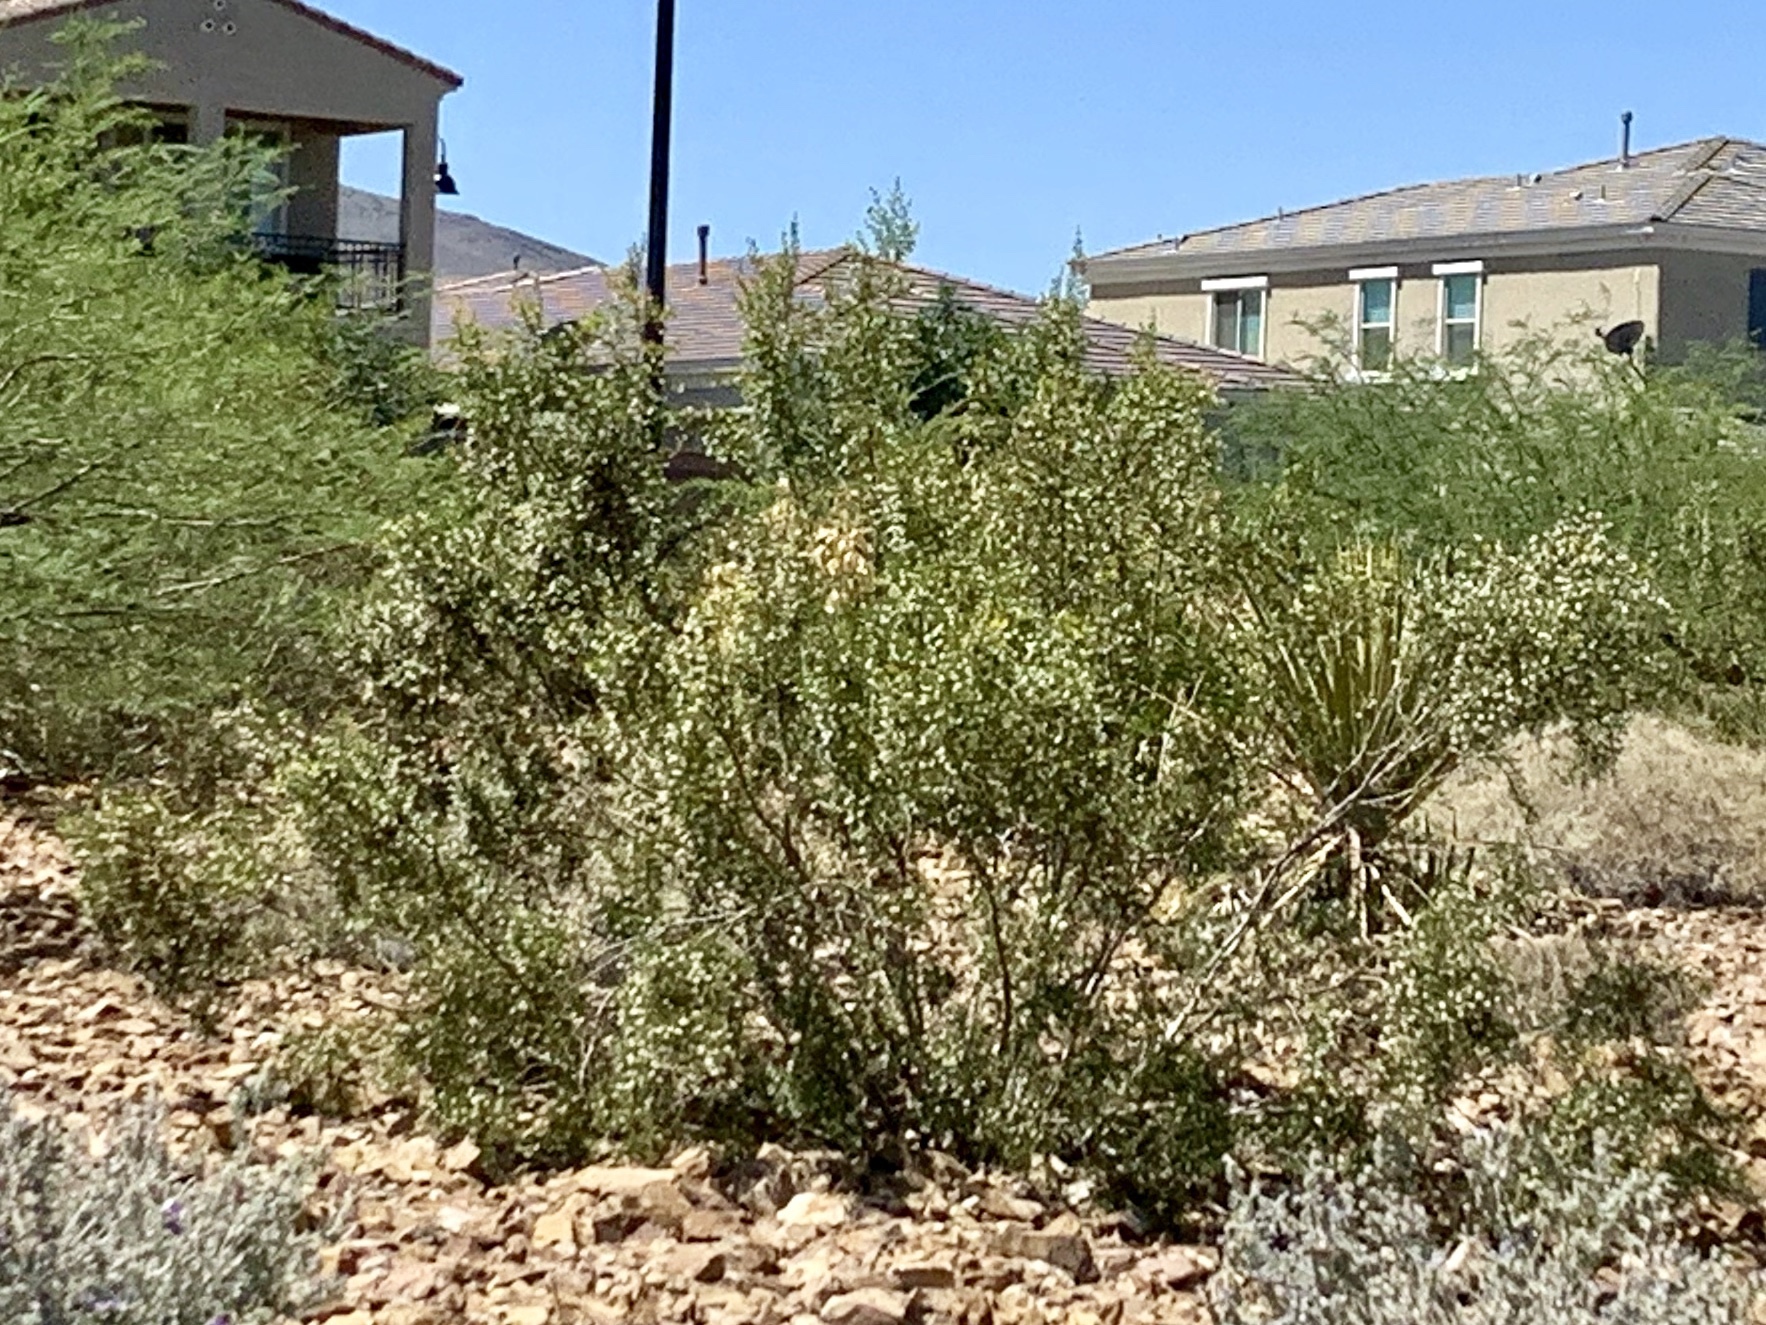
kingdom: Plantae
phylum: Tracheophyta
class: Magnoliopsida
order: Zygophyllales
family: Zygophyllaceae
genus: Larrea
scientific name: Larrea tridentata
